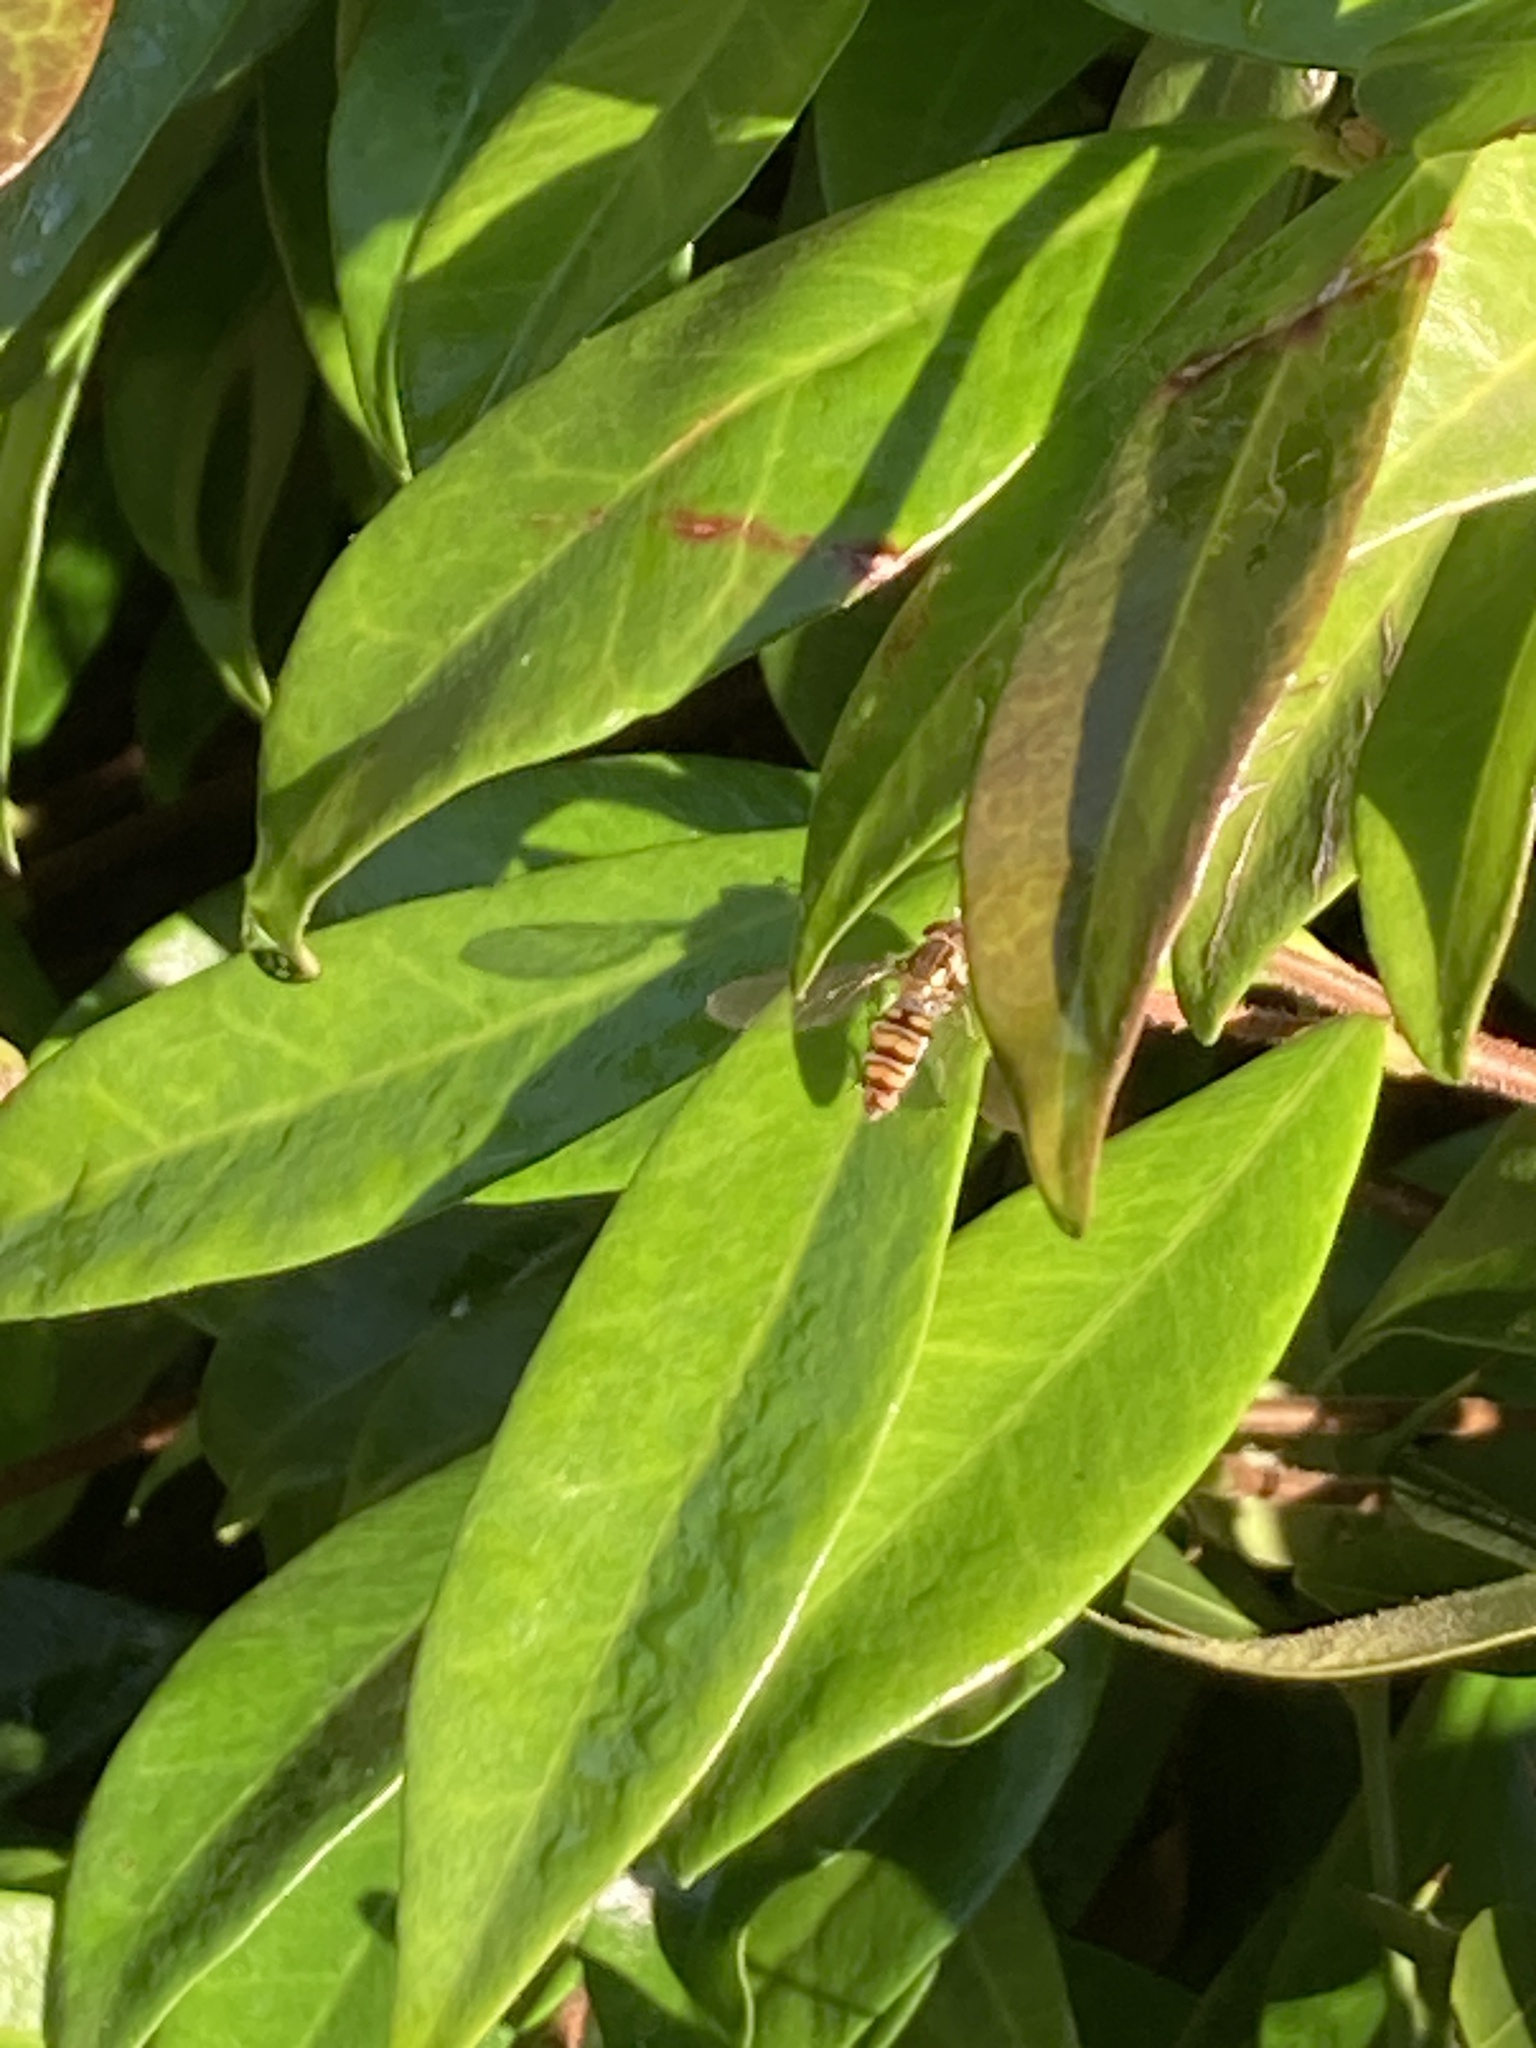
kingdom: Animalia
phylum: Arthropoda
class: Insecta
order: Diptera
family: Syrphidae
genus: Episyrphus
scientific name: Episyrphus balteatus
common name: Marmalade hoverfly
